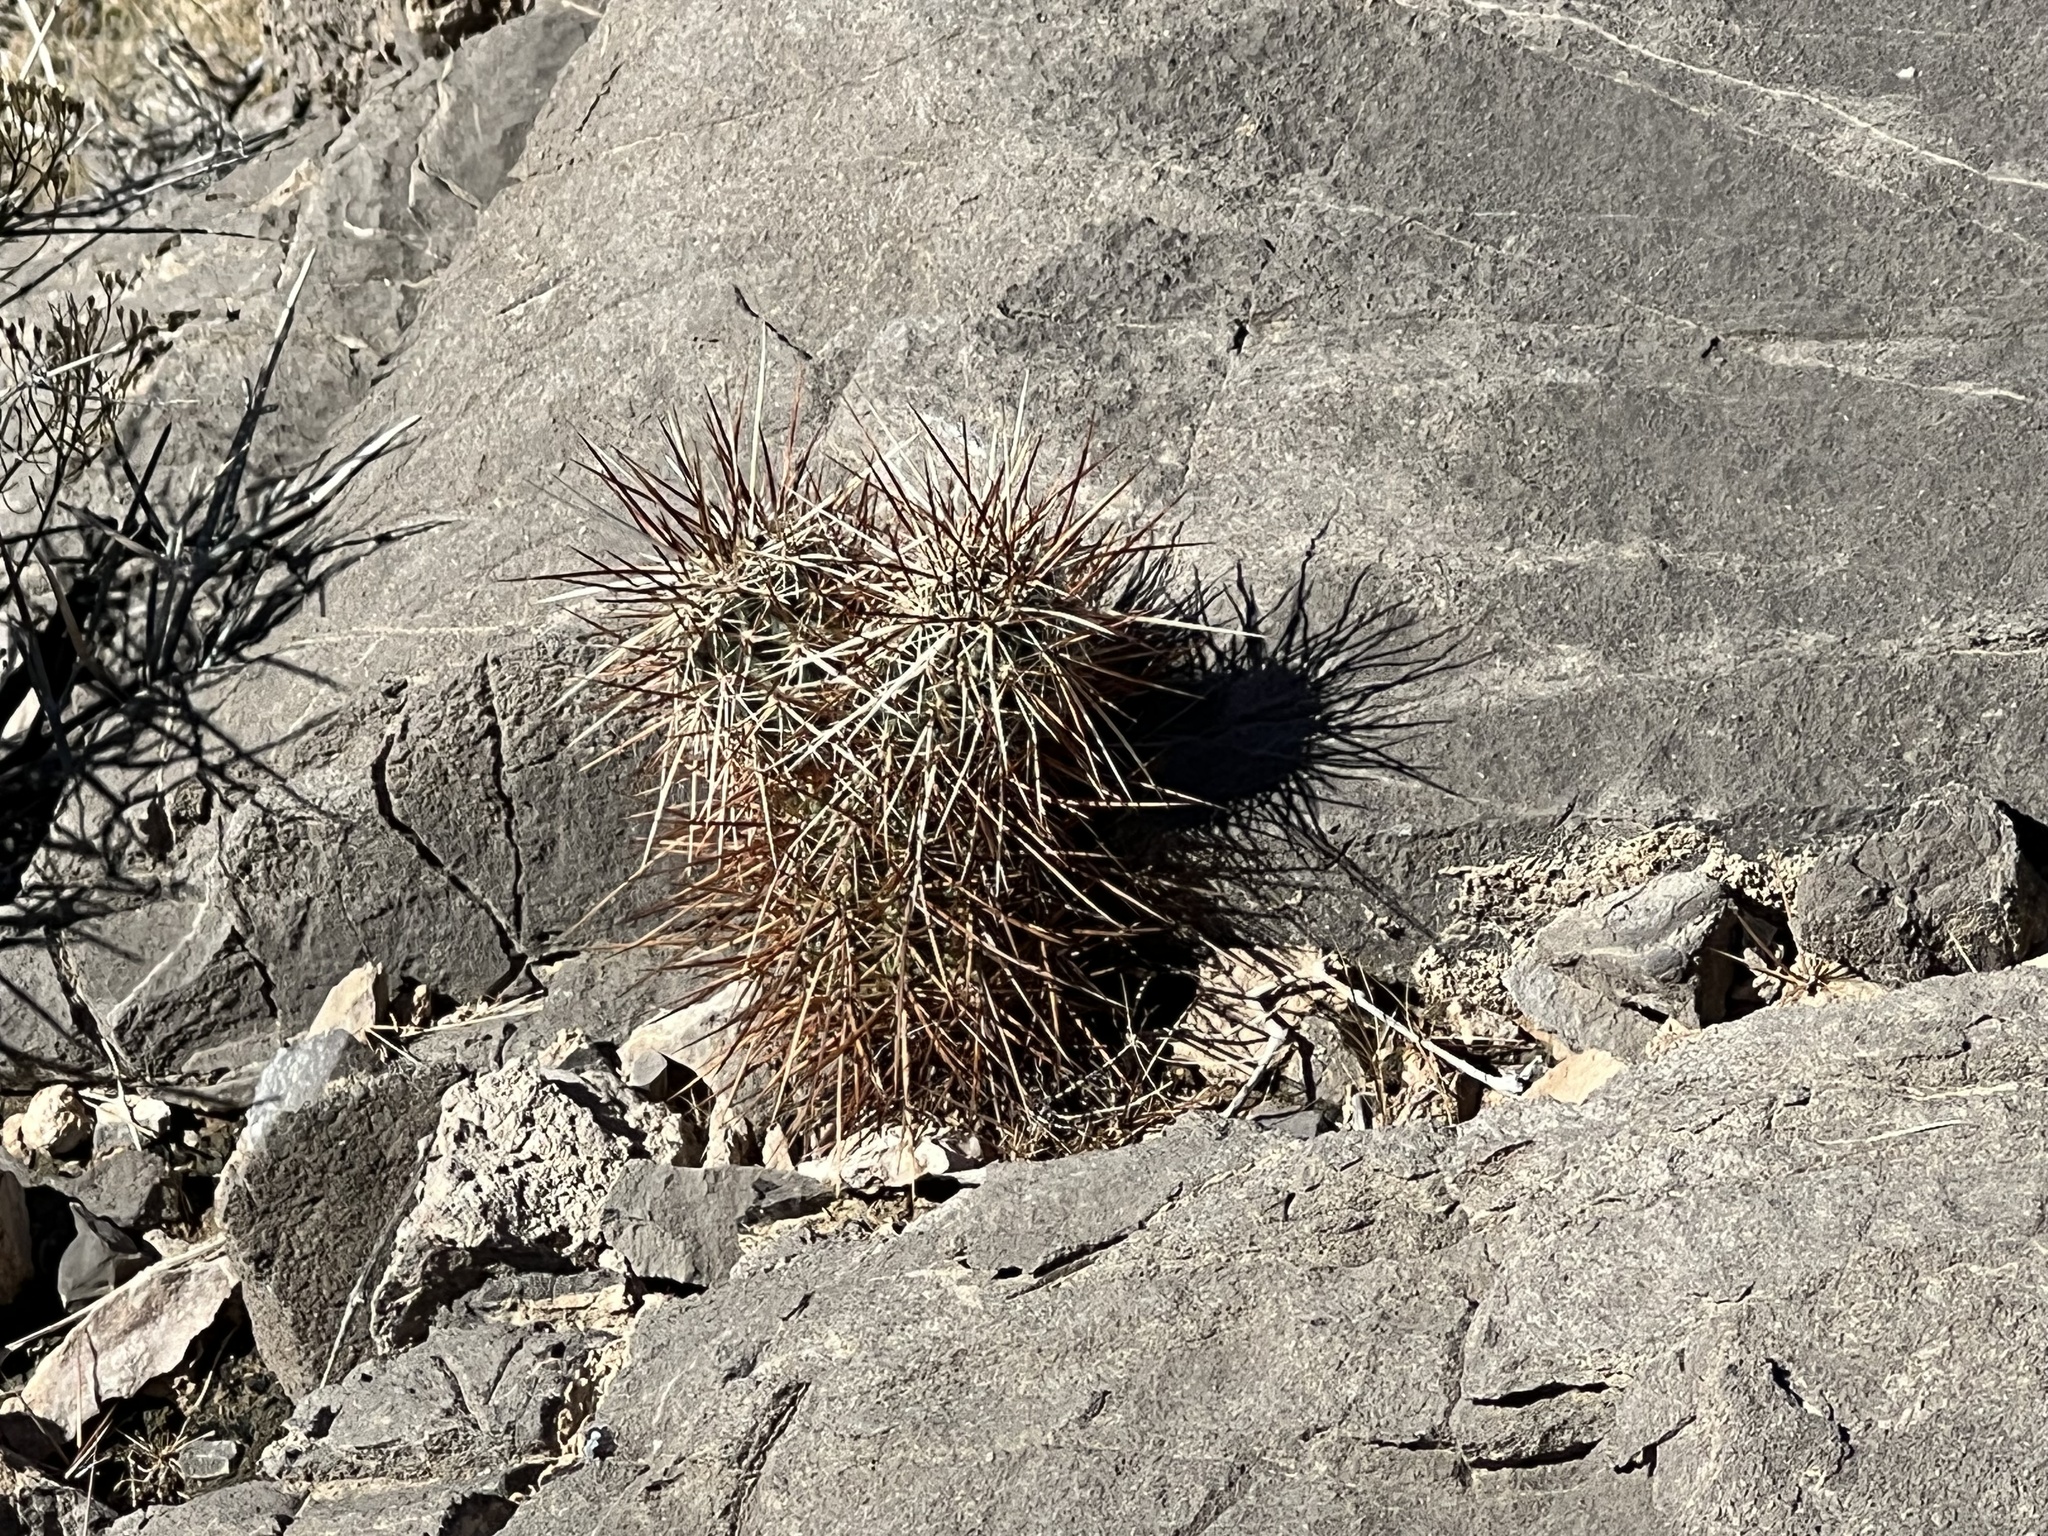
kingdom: Plantae
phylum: Tracheophyta
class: Magnoliopsida
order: Caryophyllales
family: Cactaceae
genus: Echinocereus
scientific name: Echinocereus engelmannii
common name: Engelmann's hedgehog cactus
